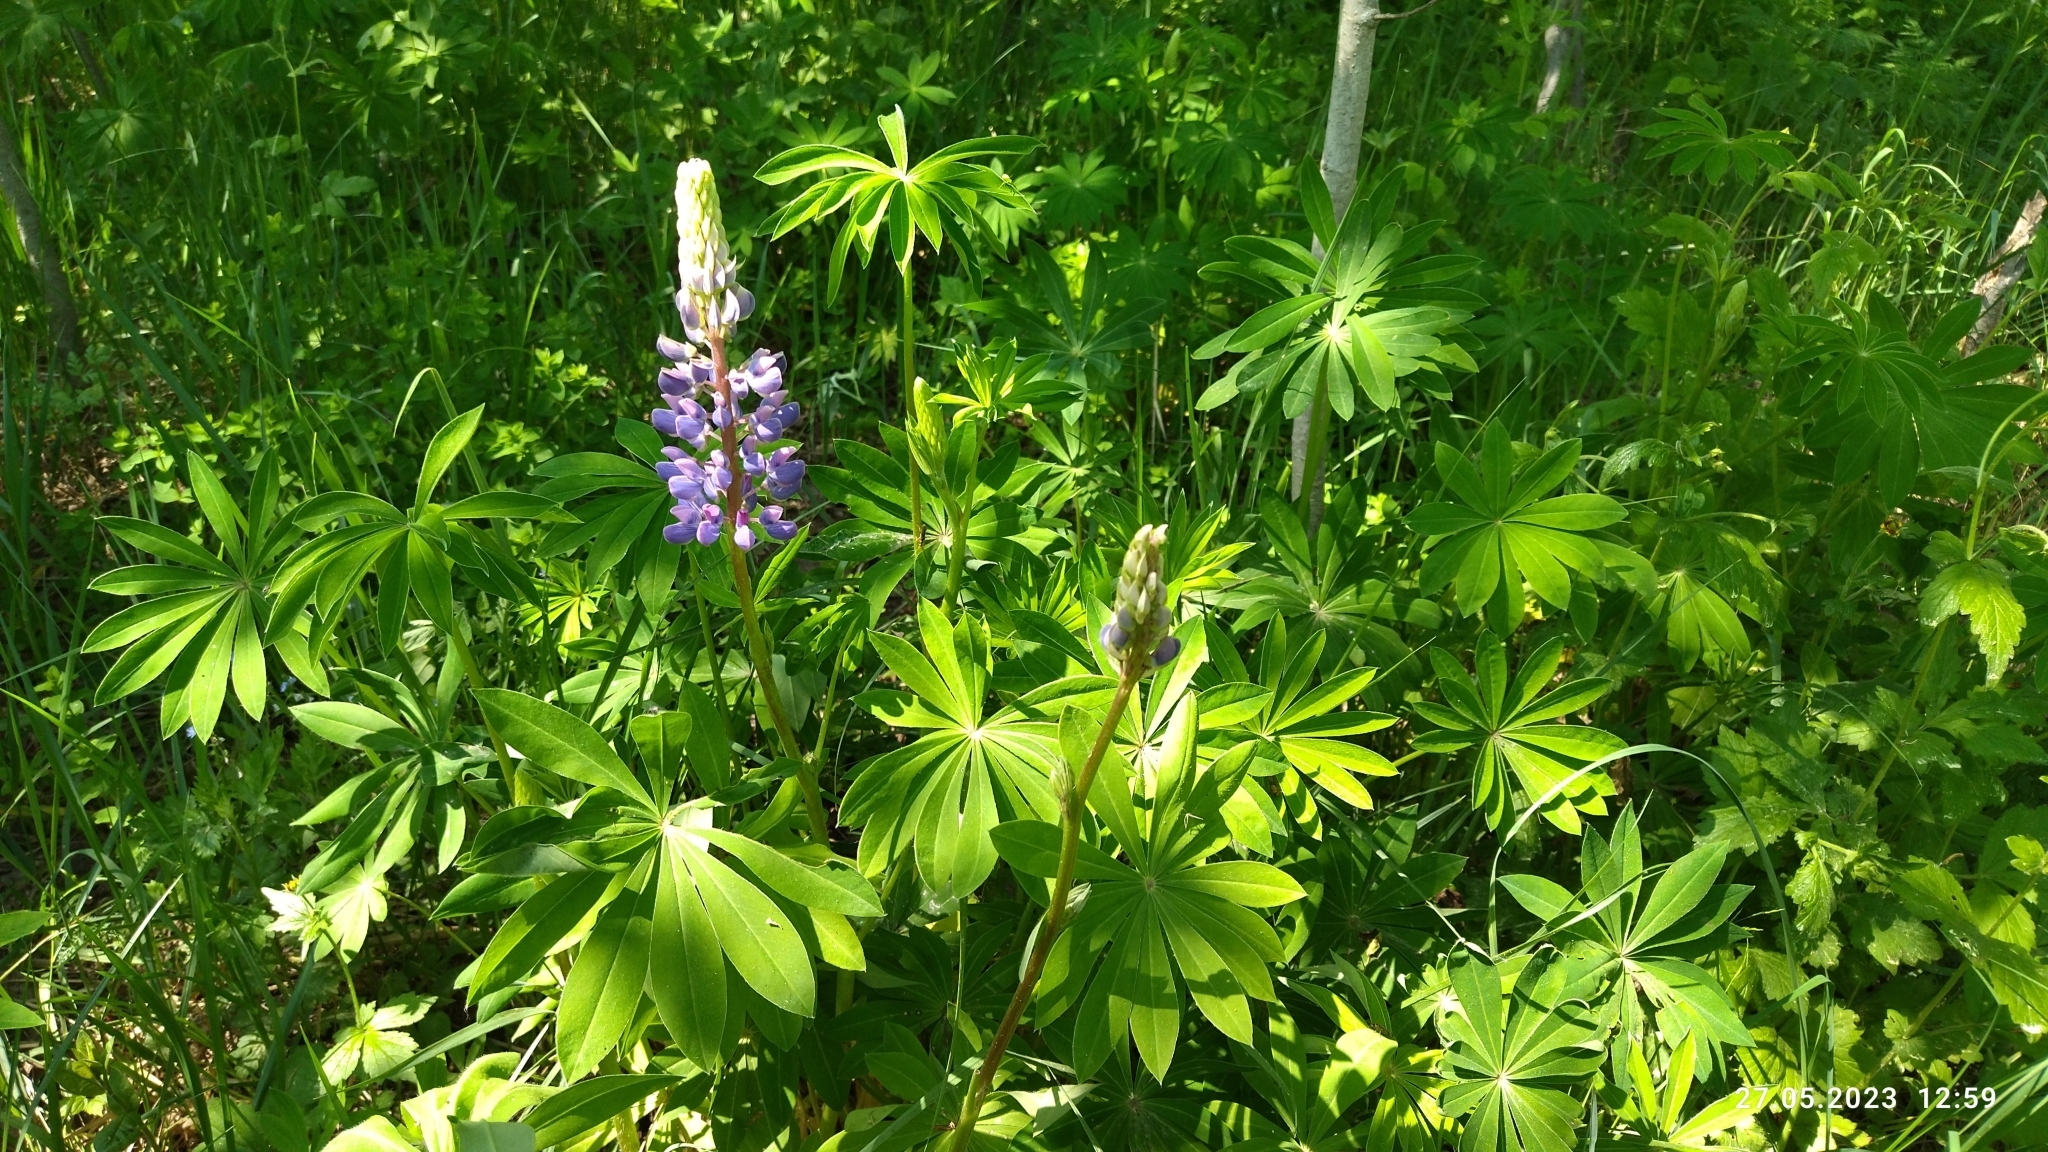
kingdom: Plantae
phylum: Tracheophyta
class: Magnoliopsida
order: Fabales
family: Fabaceae
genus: Lupinus
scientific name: Lupinus polyphyllus
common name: Garden lupin
